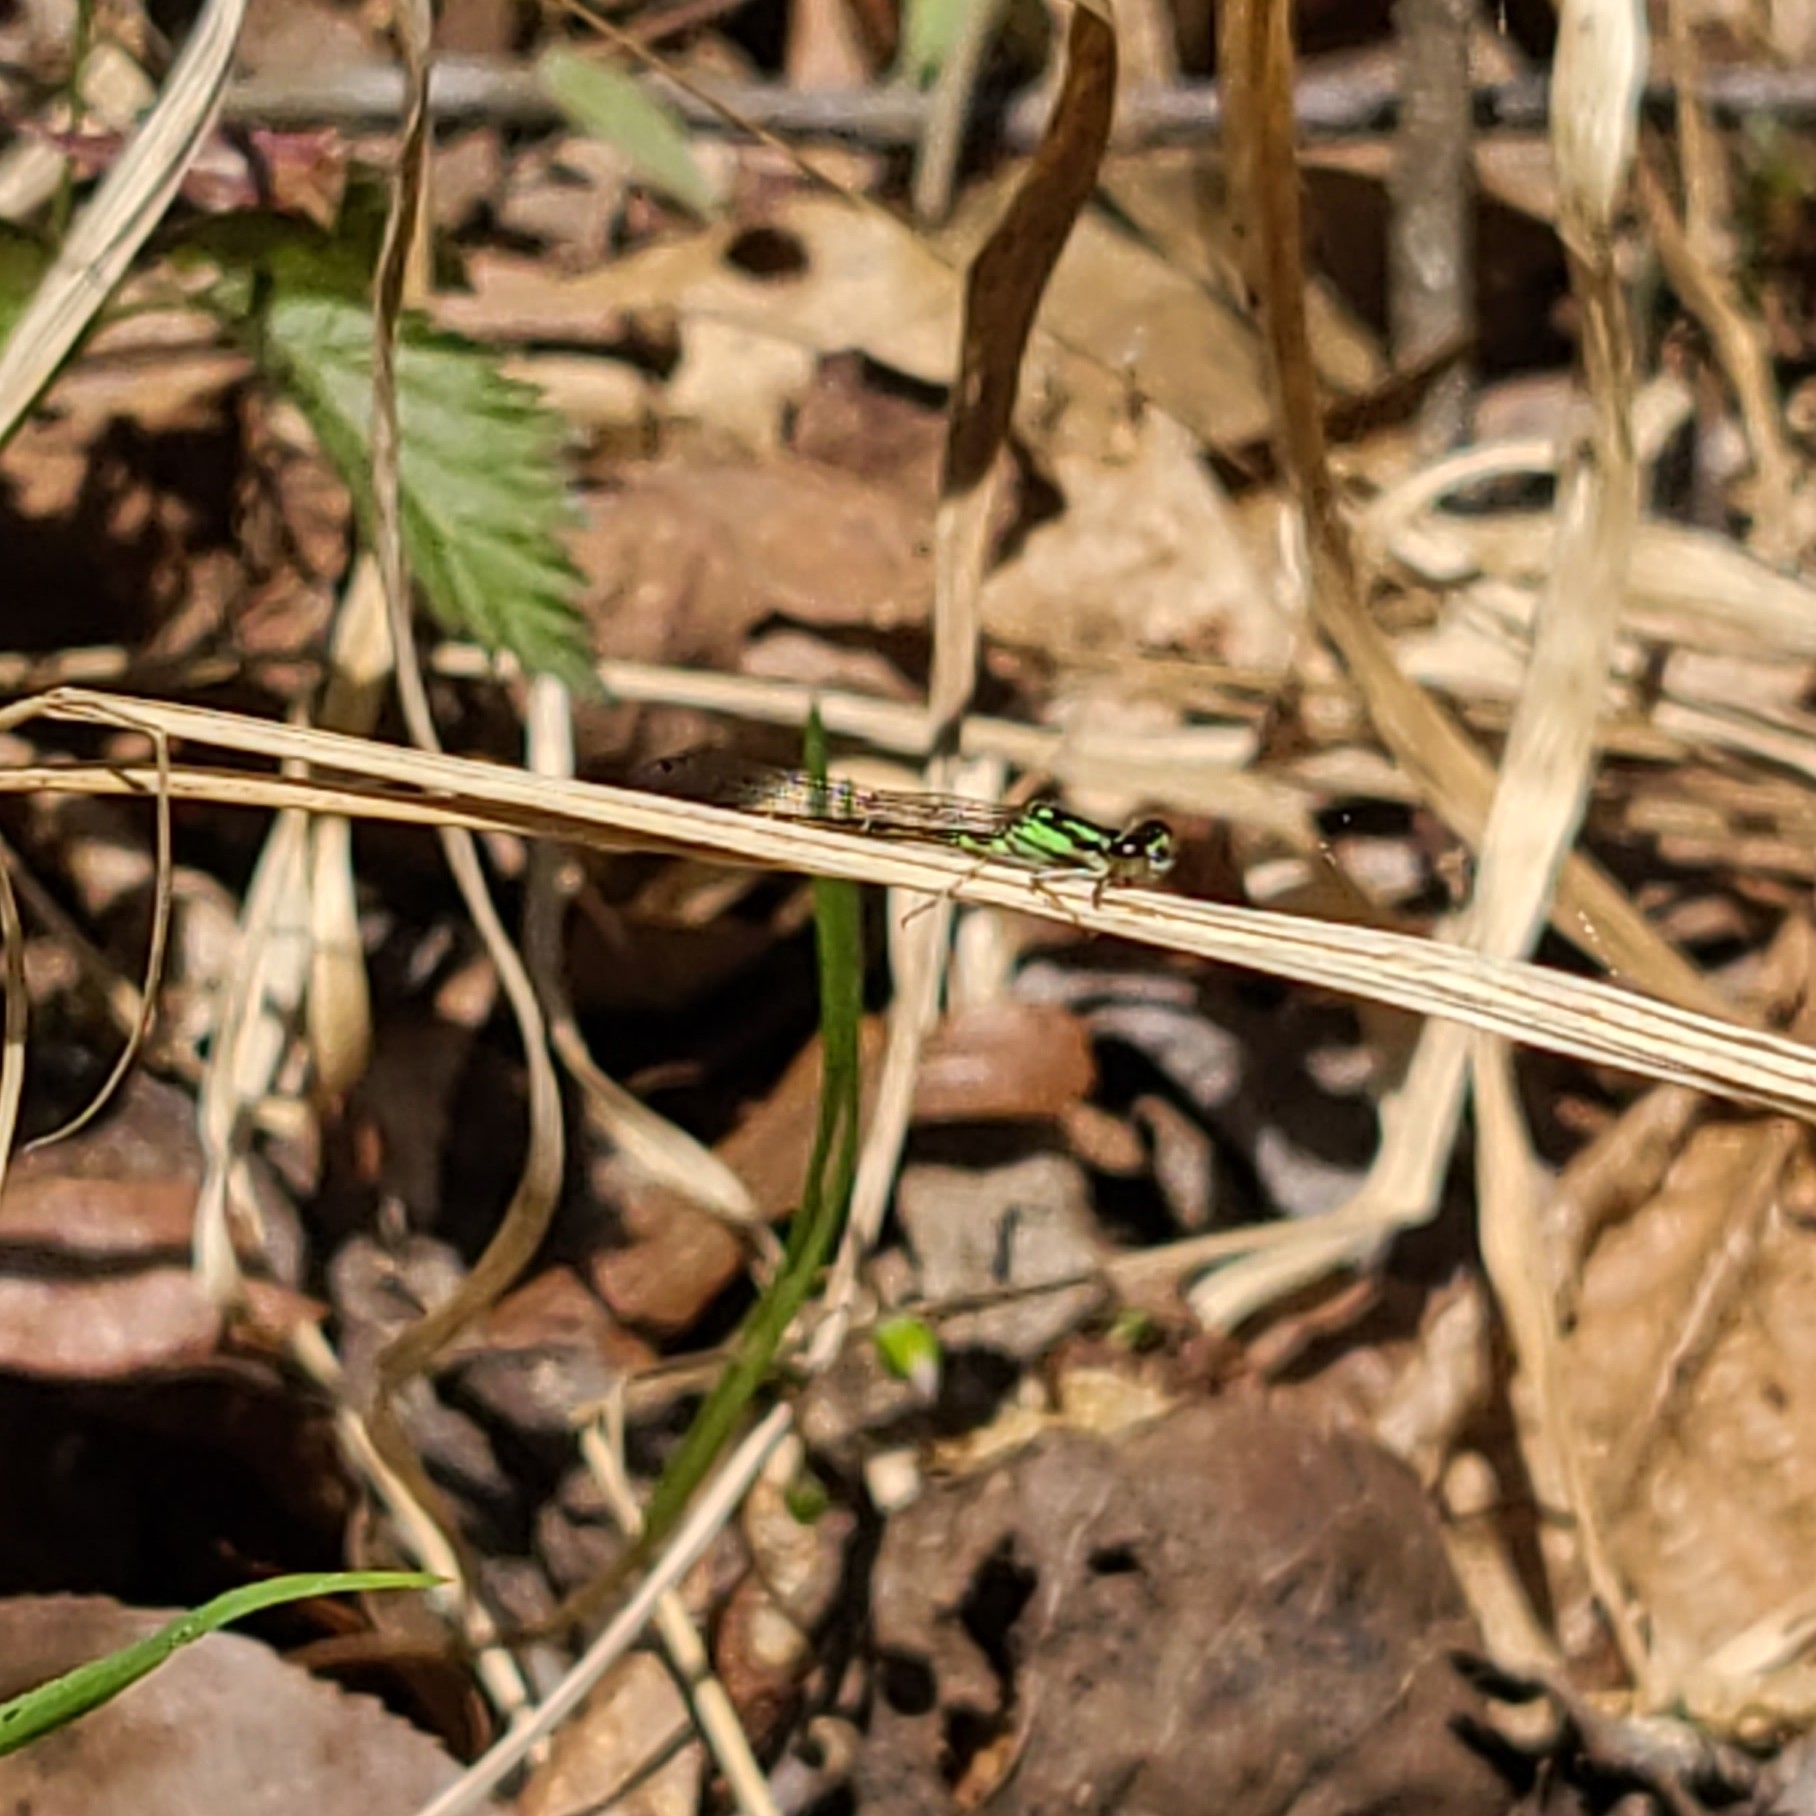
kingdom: Animalia
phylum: Arthropoda
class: Insecta
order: Odonata
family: Coenagrionidae
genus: Ischnura
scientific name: Ischnura posita
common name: Fragile forktail
